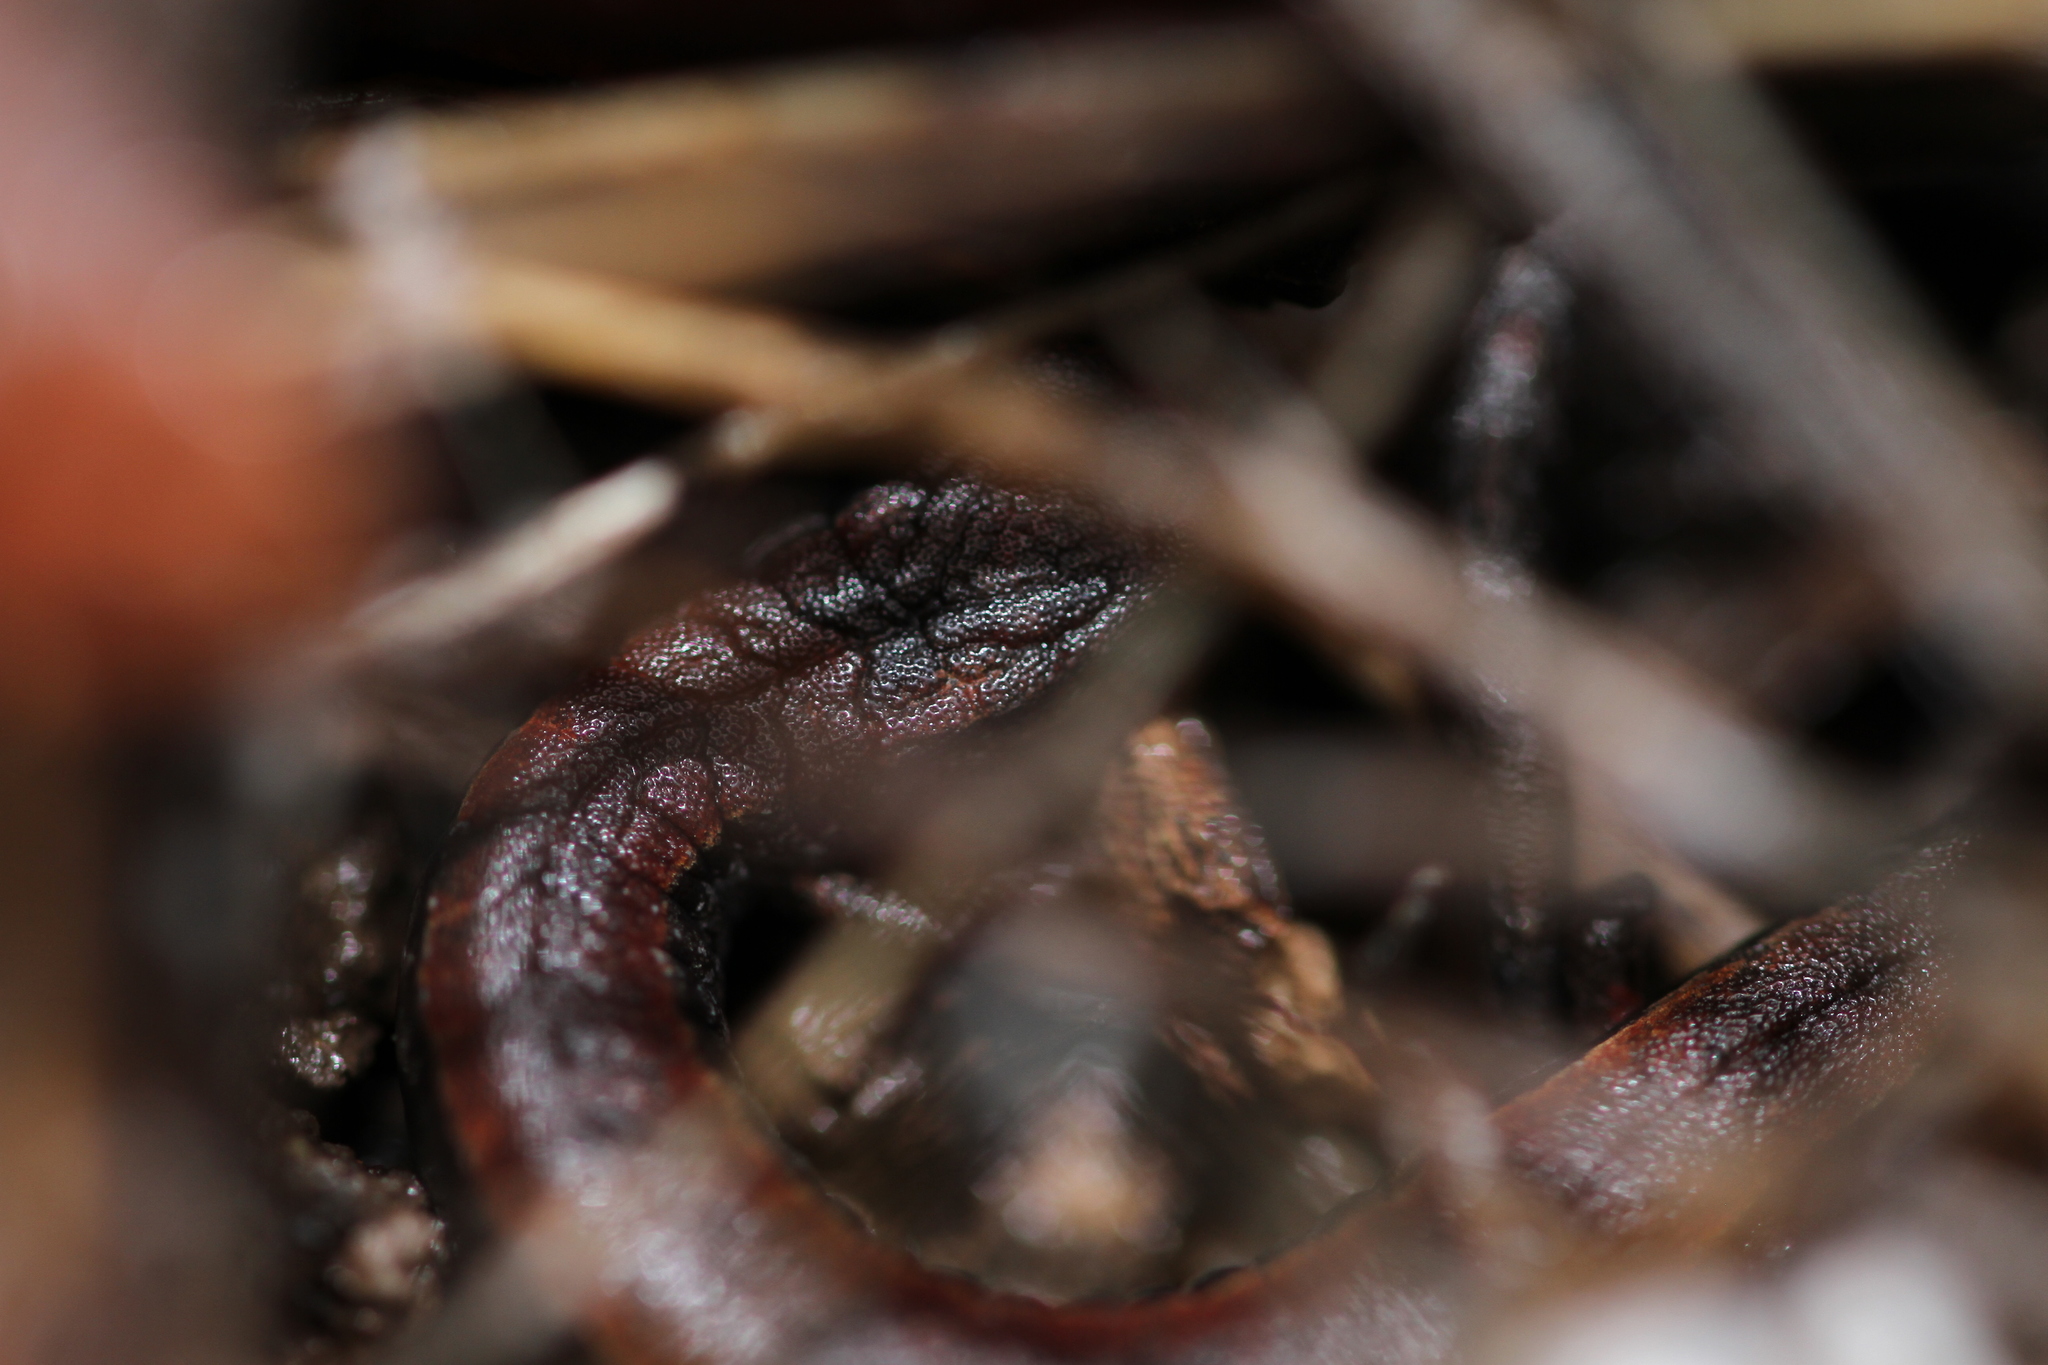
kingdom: Animalia
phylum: Chordata
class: Amphibia
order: Caudata
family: Plethodontidae
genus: Batrachoseps
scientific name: Batrachoseps attenuatus
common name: California slender salamander
